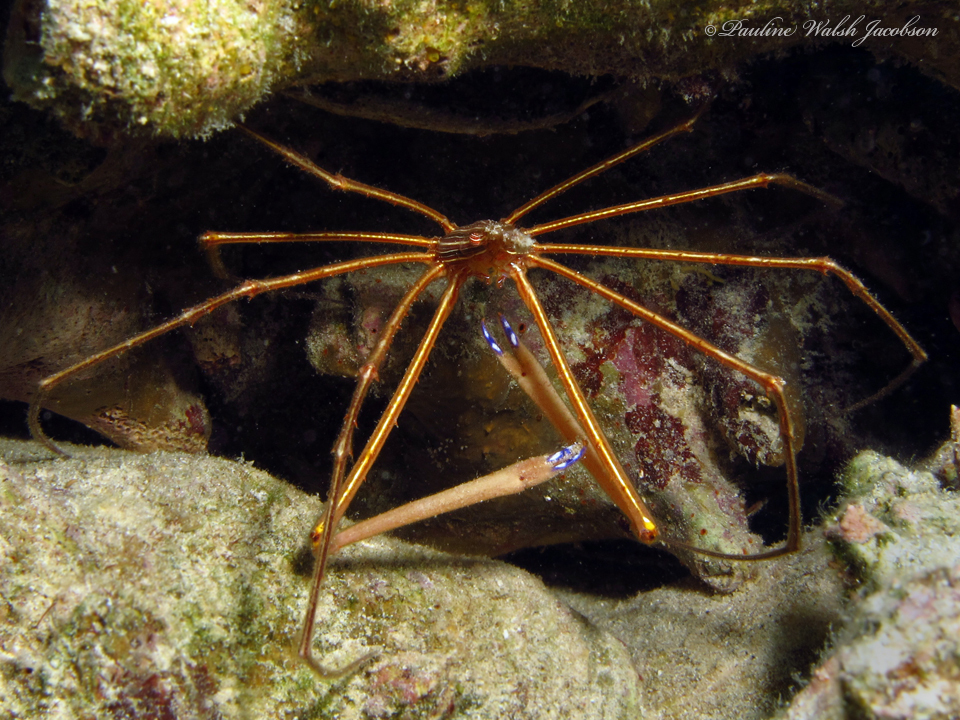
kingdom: Animalia
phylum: Arthropoda
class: Malacostraca
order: Decapoda
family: Inachoididae
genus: Stenorhynchus
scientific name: Stenorhynchus seticornis
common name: Arrow crab
